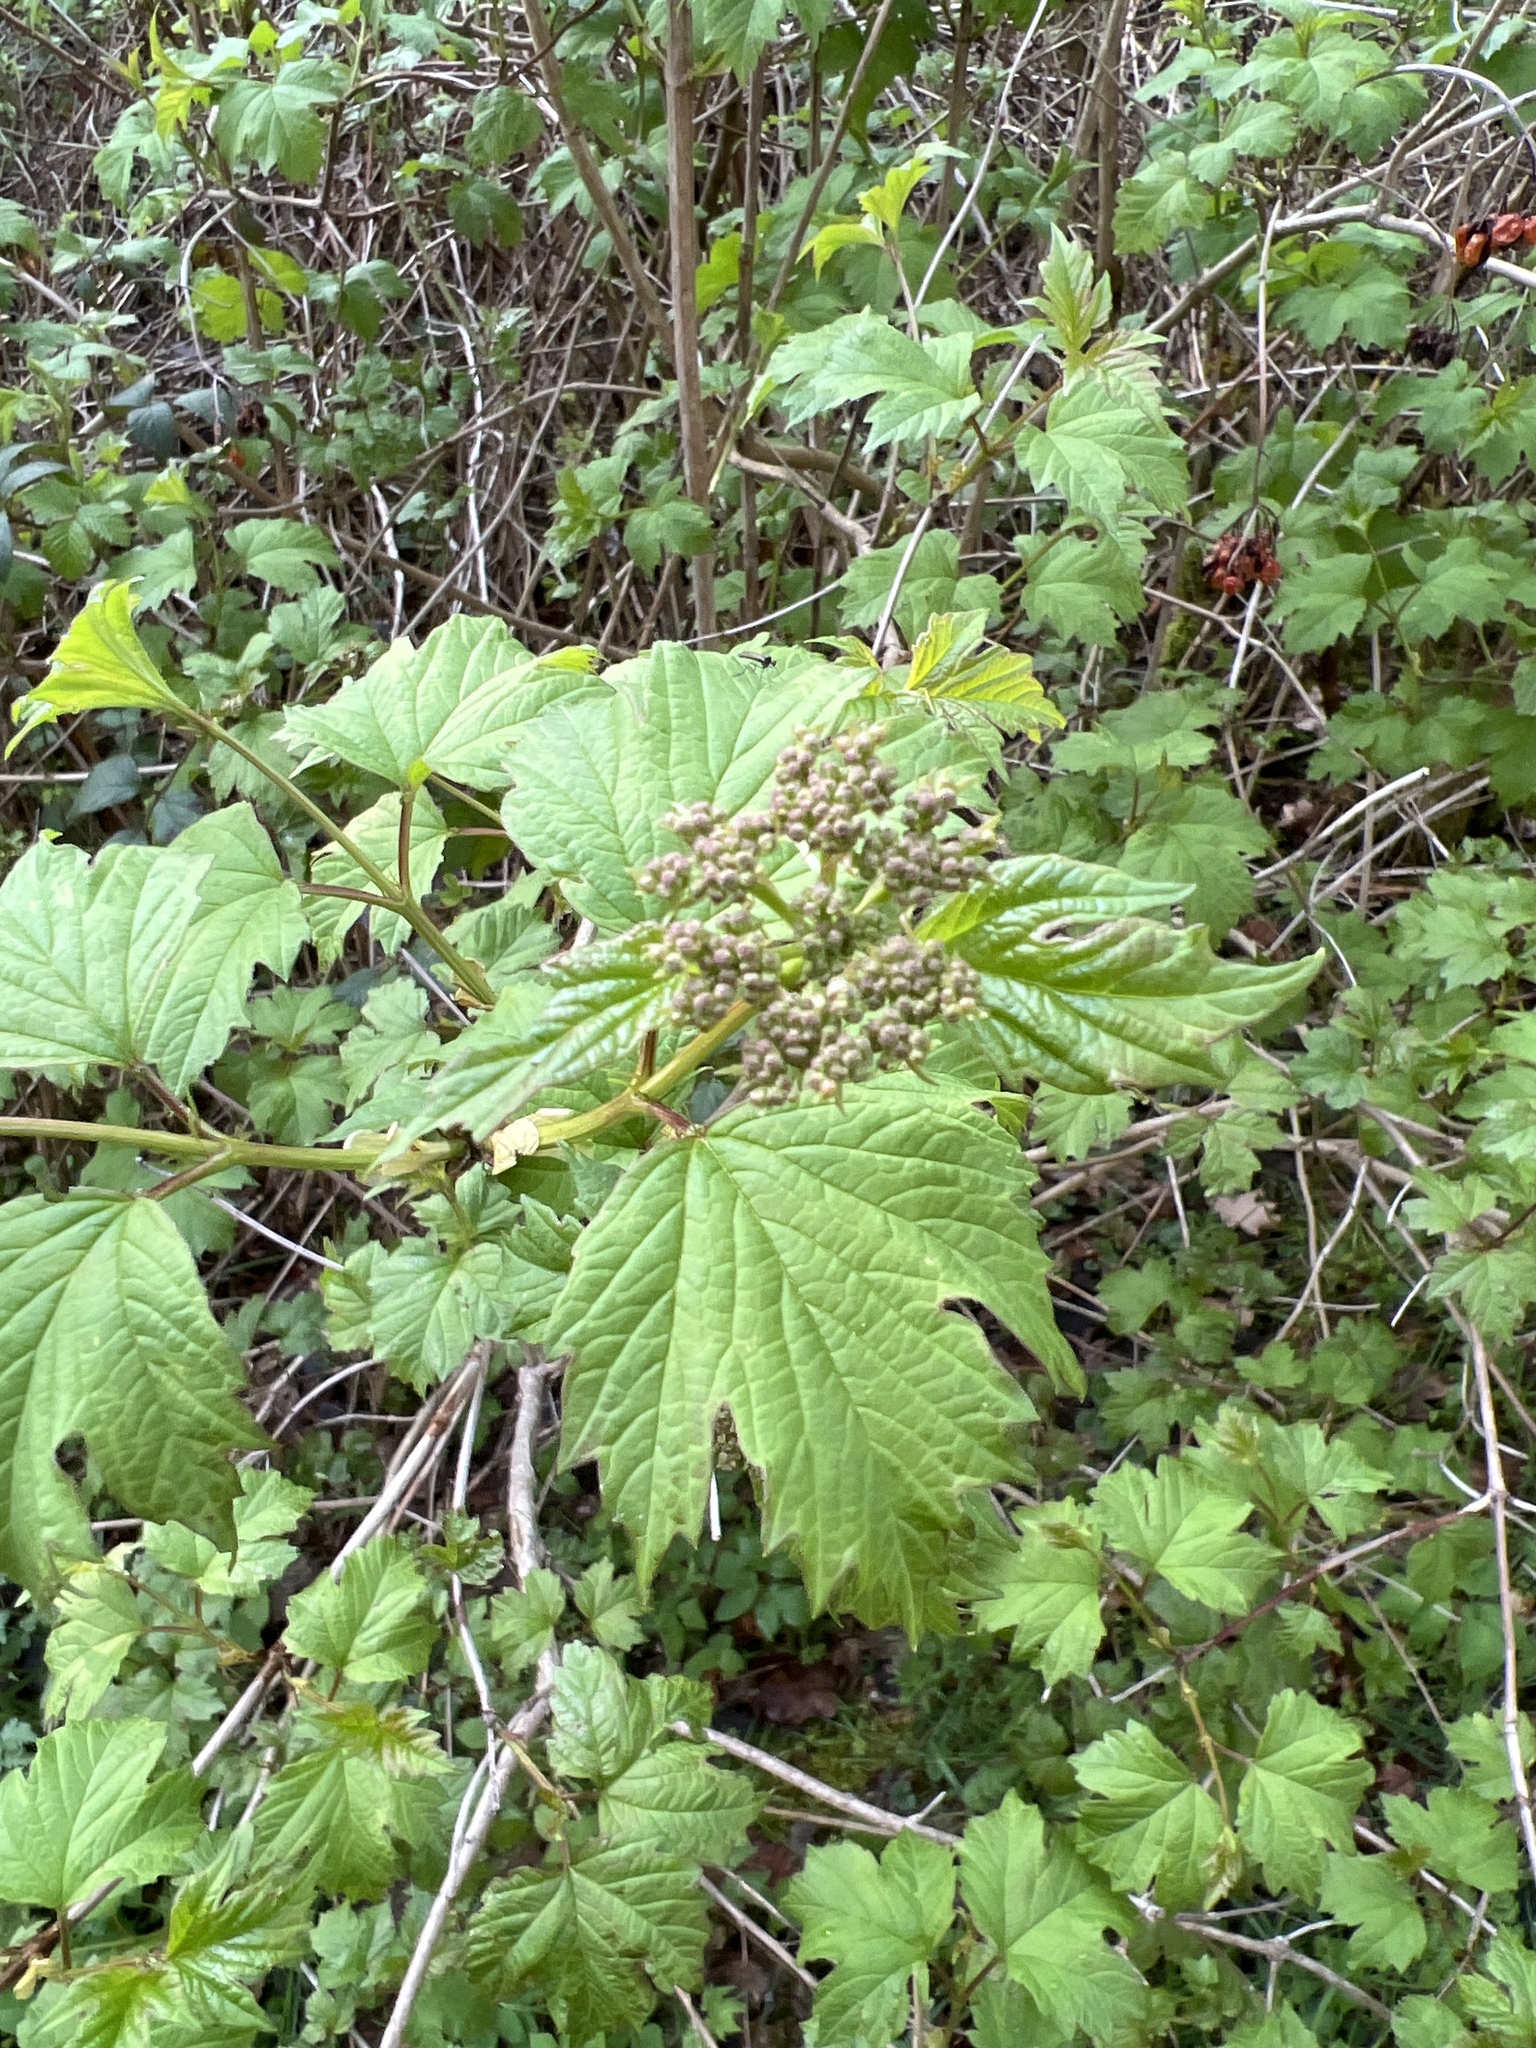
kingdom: Plantae
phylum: Tracheophyta
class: Magnoliopsida
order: Dipsacales
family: Viburnaceae
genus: Viburnum
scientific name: Viburnum opulus
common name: Guelder-rose
